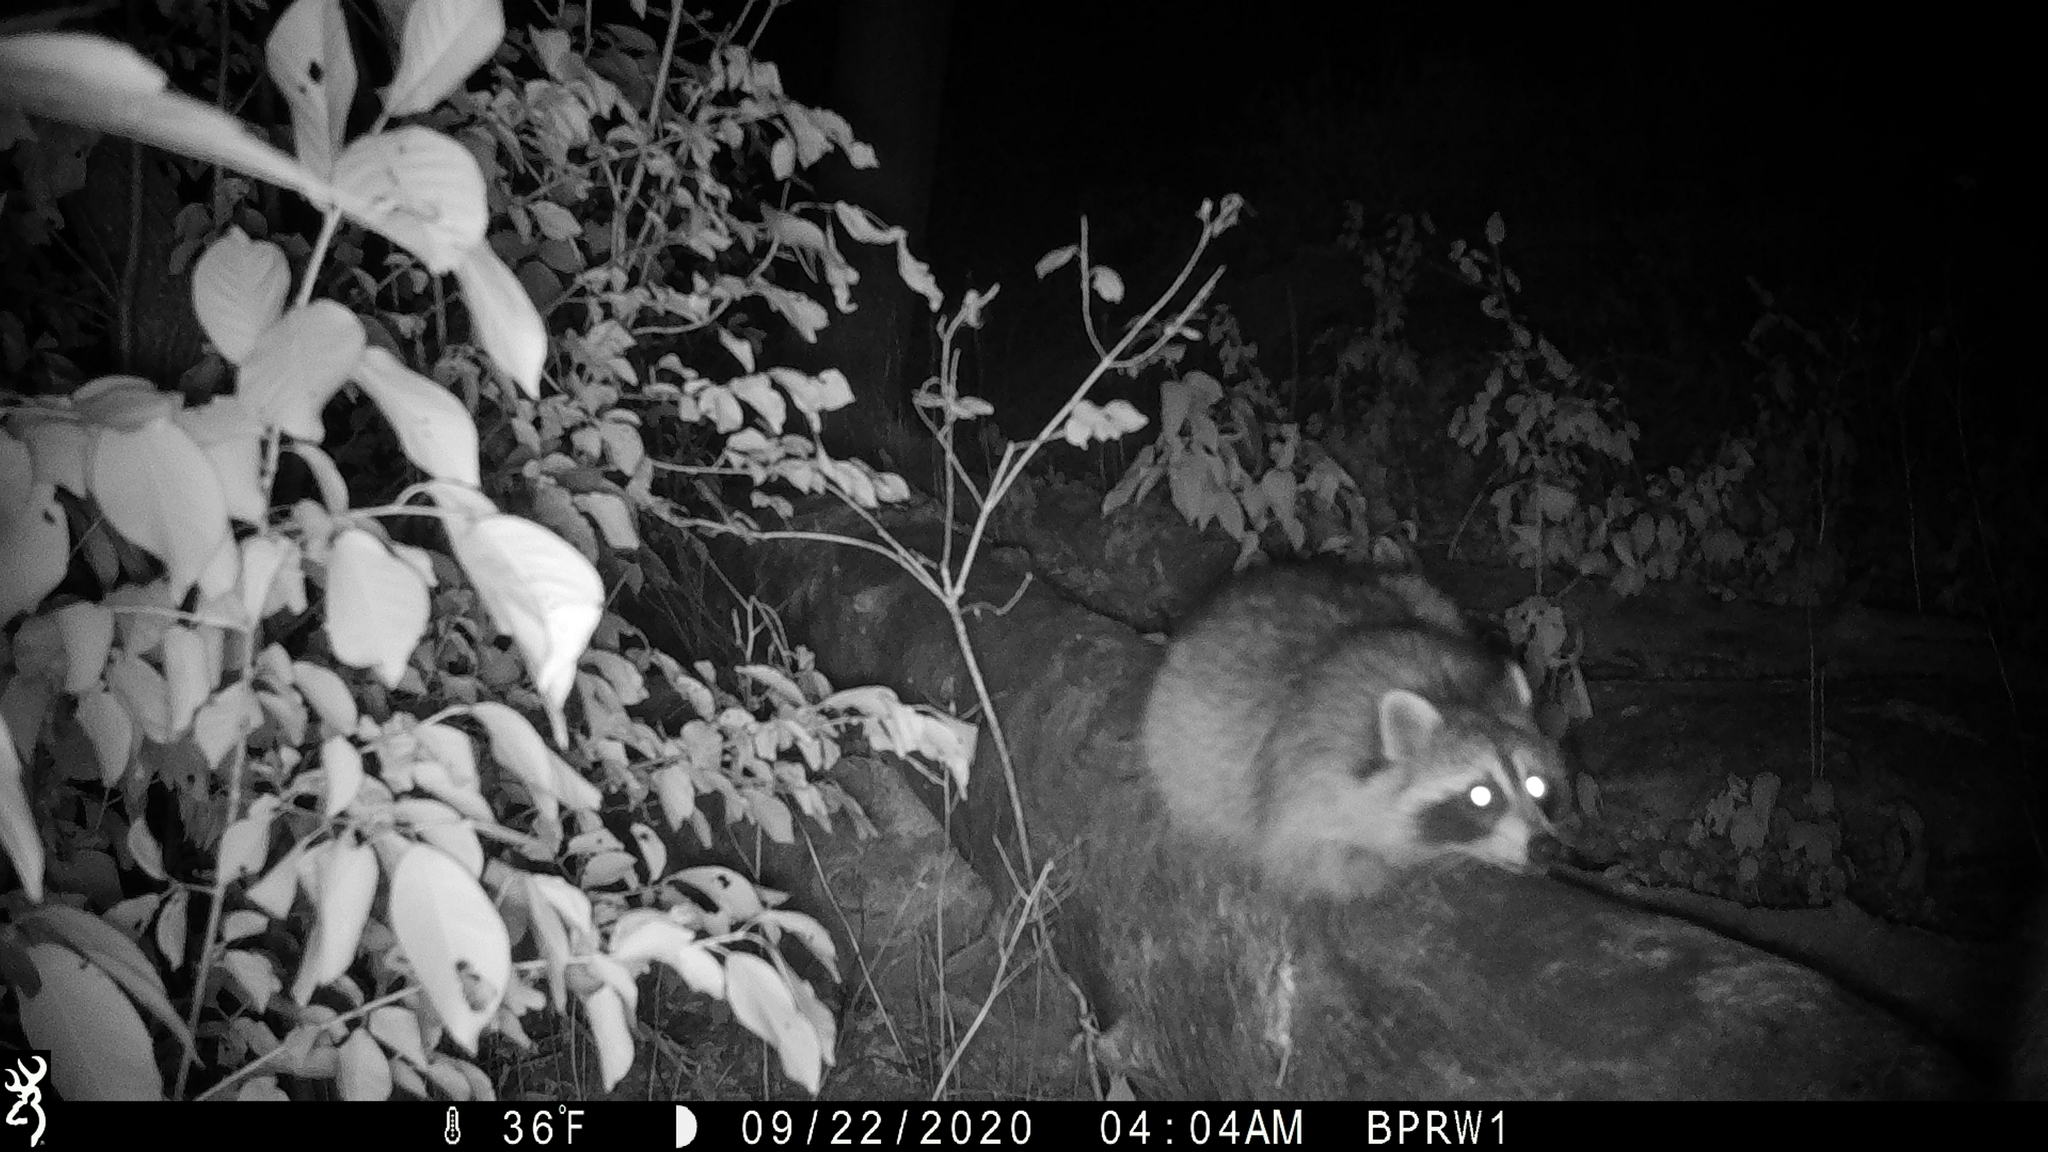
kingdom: Animalia
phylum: Chordata
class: Mammalia
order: Carnivora
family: Procyonidae
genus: Procyon
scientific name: Procyon lotor
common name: Raccoon
